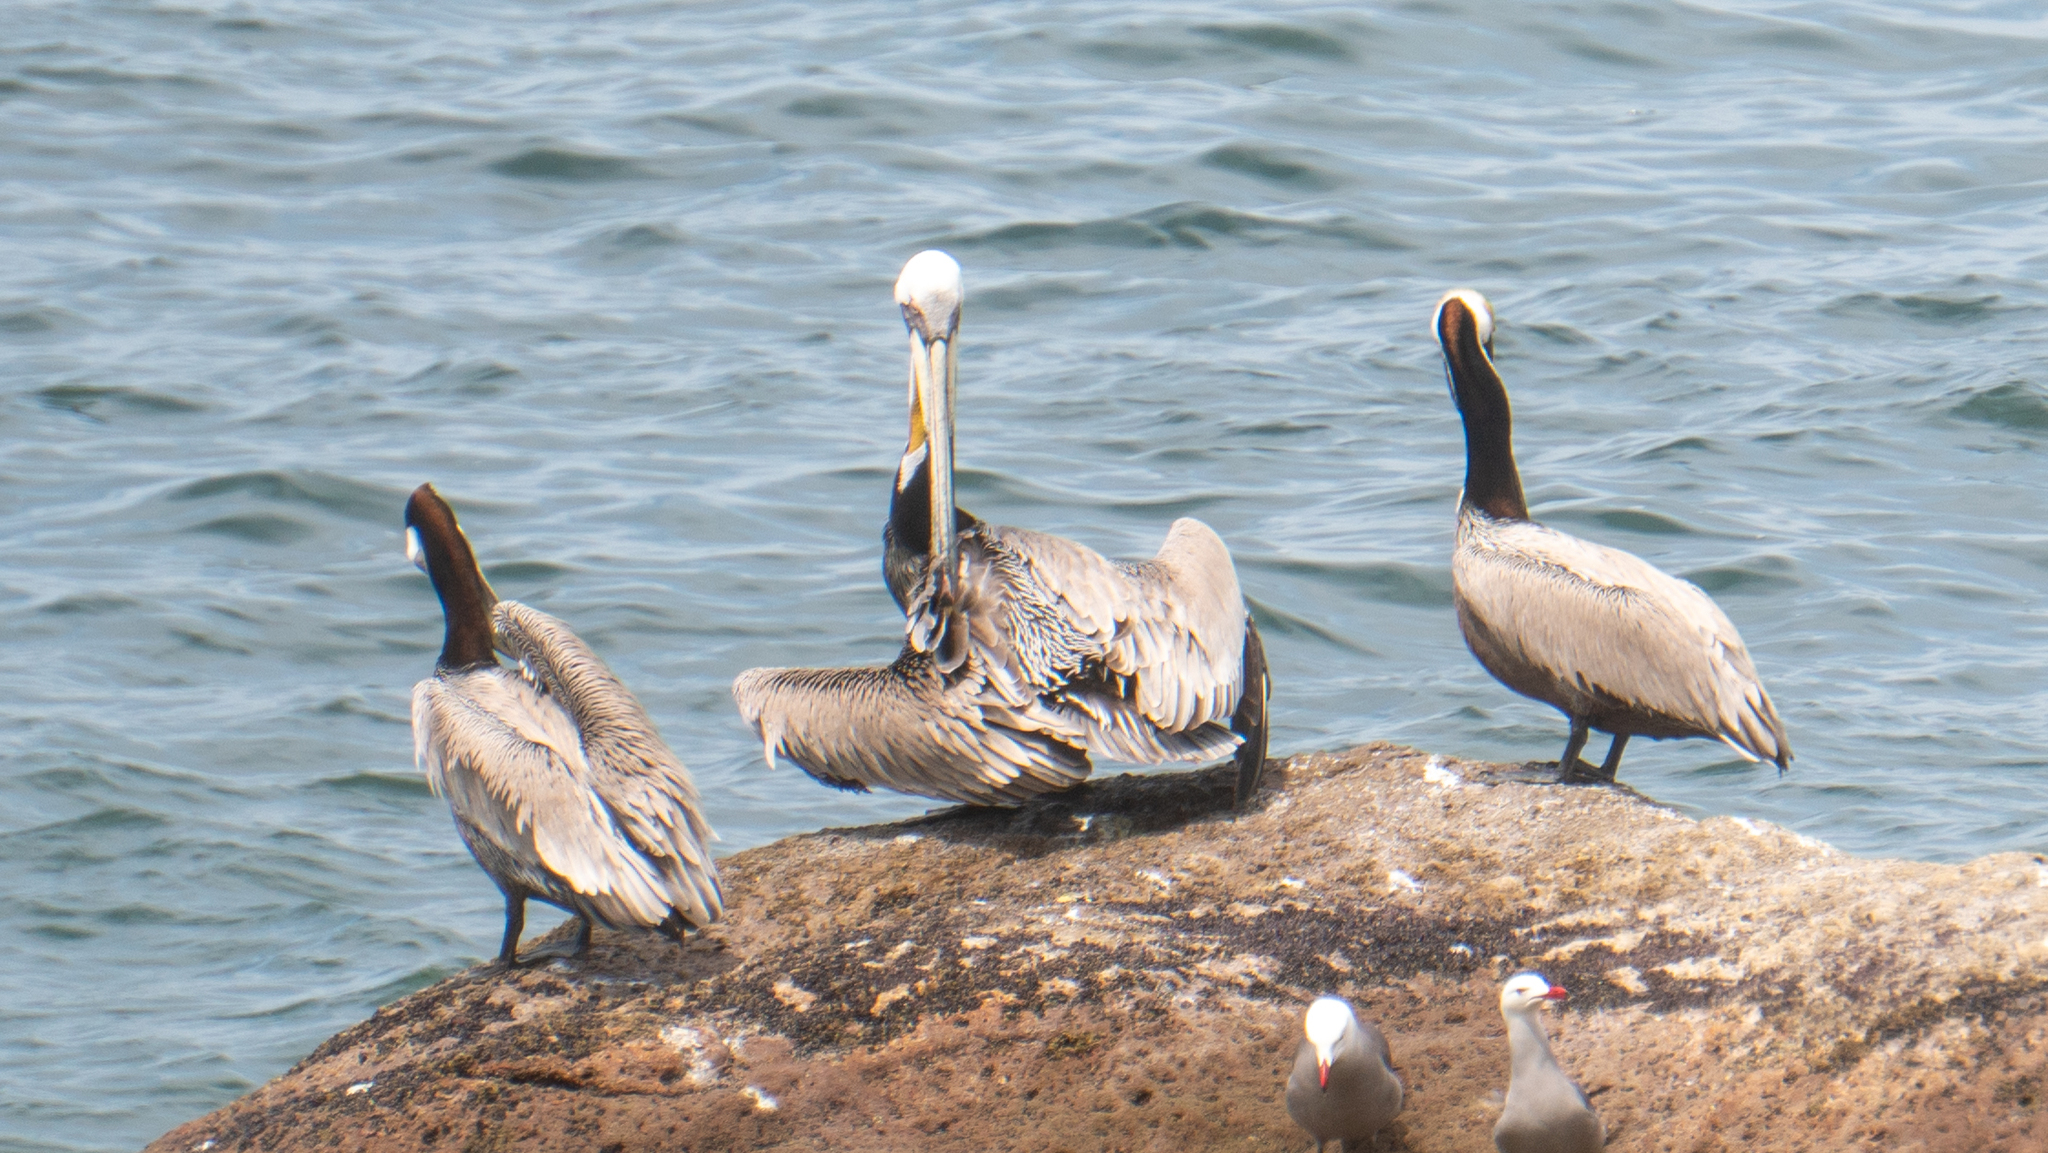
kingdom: Animalia
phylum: Chordata
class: Aves
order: Pelecaniformes
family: Pelecanidae
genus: Pelecanus
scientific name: Pelecanus occidentalis
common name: Brown pelican
